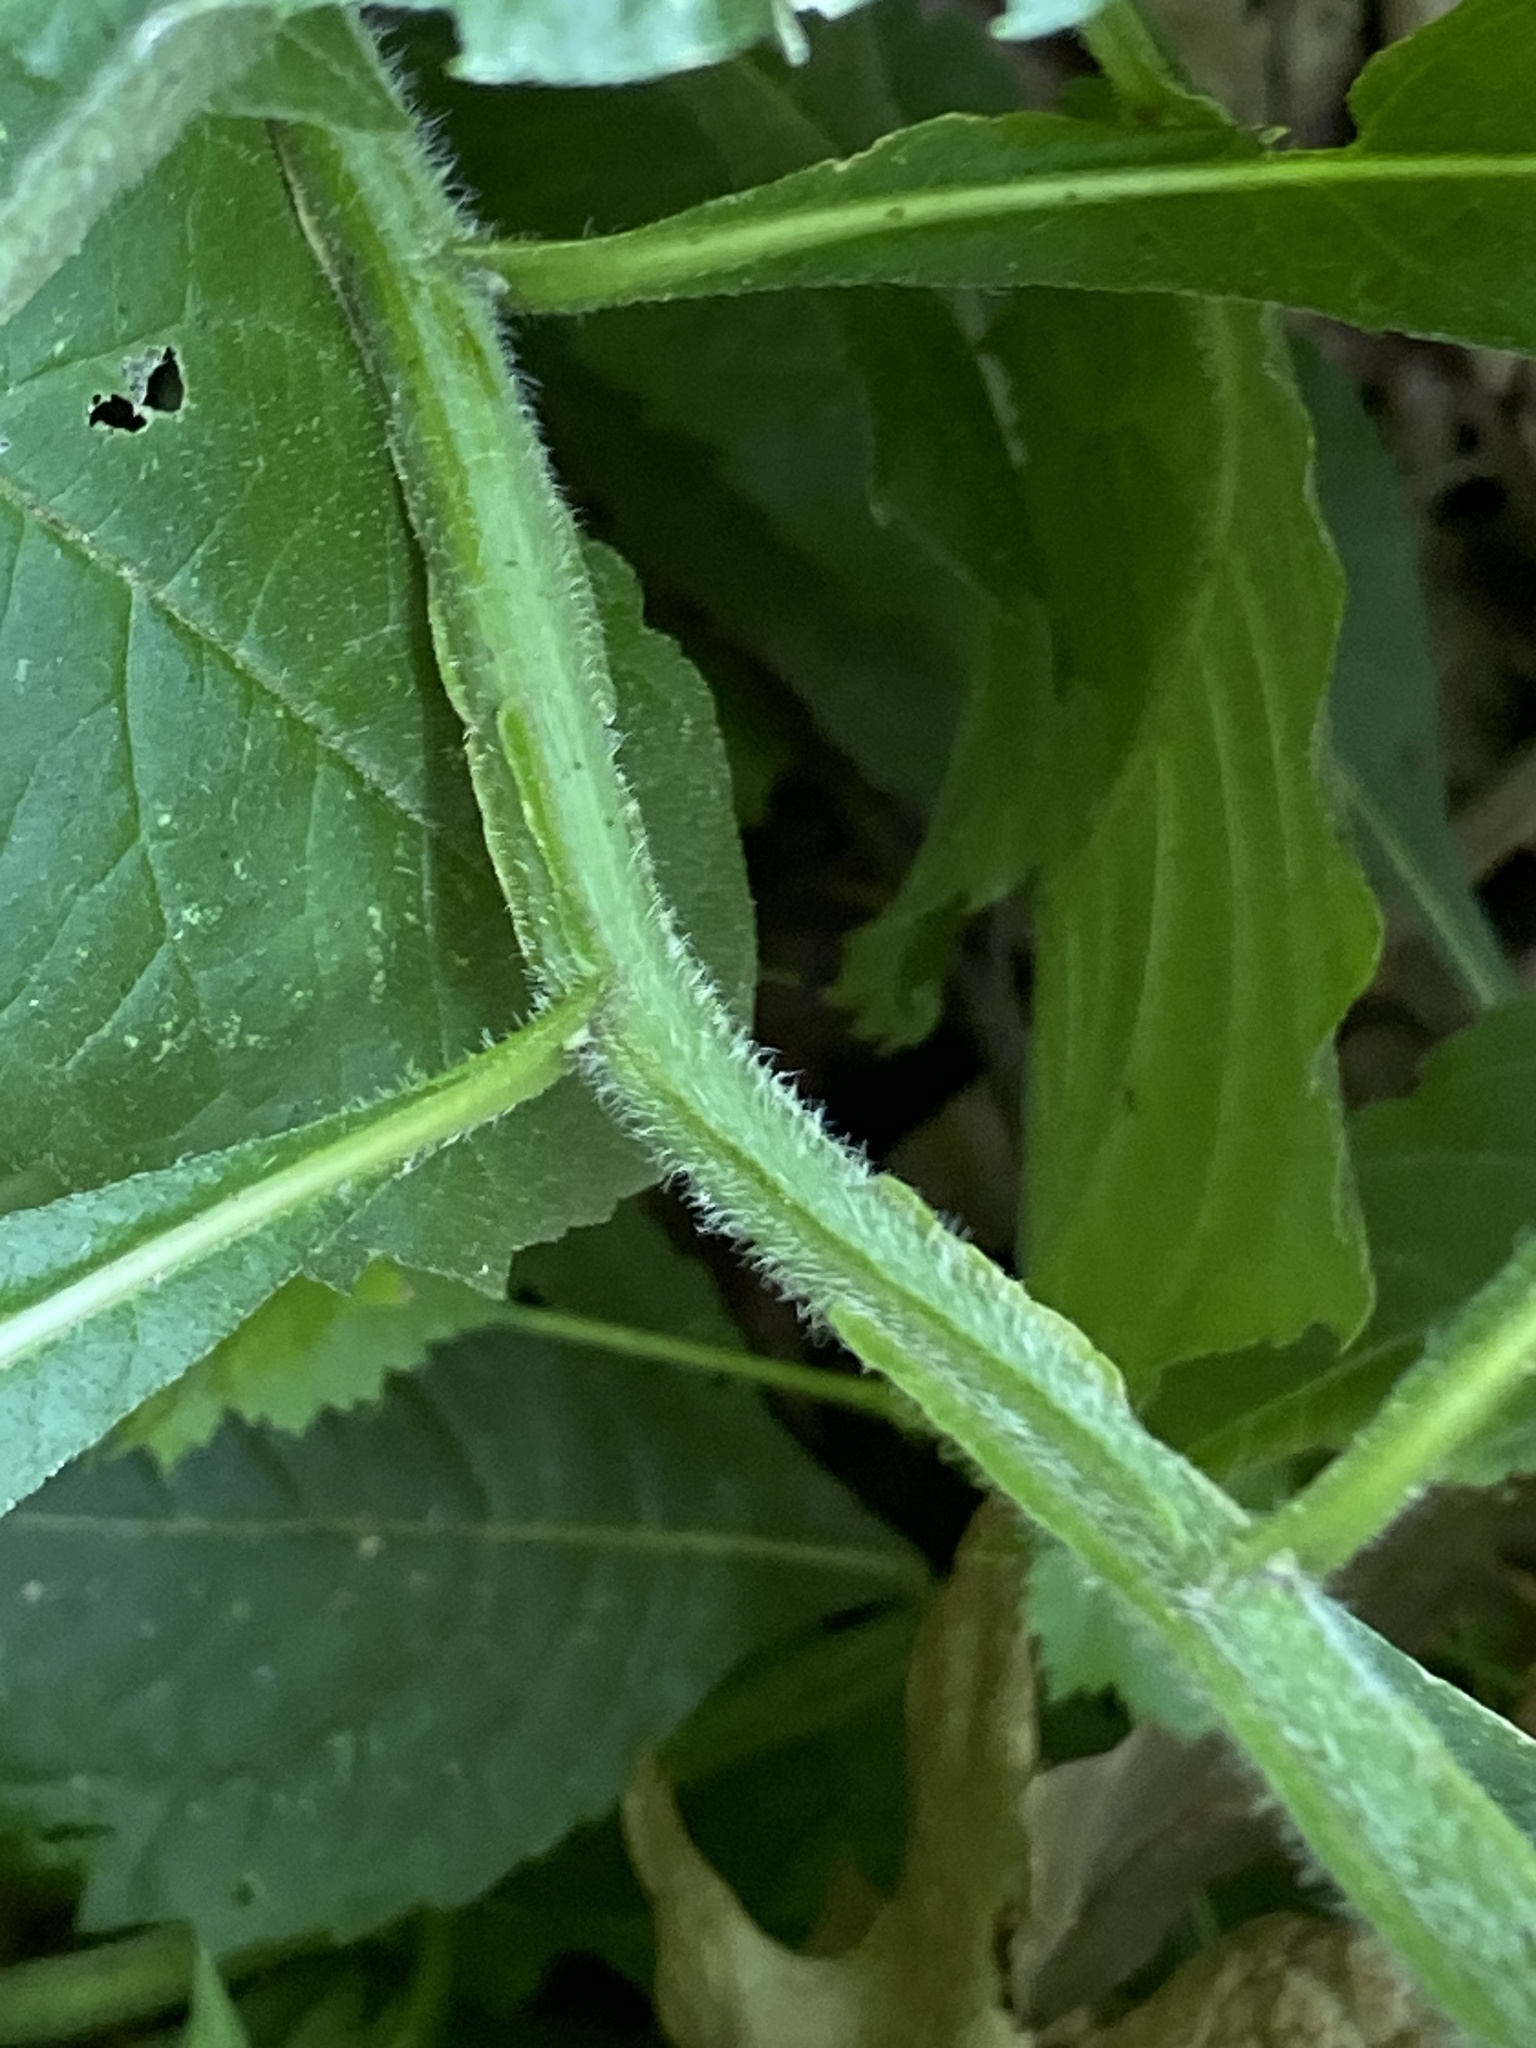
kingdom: Plantae
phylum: Tracheophyta
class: Magnoliopsida
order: Asterales
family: Asteraceae
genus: Verbesina
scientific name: Verbesina alternifolia
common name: Wingstem
